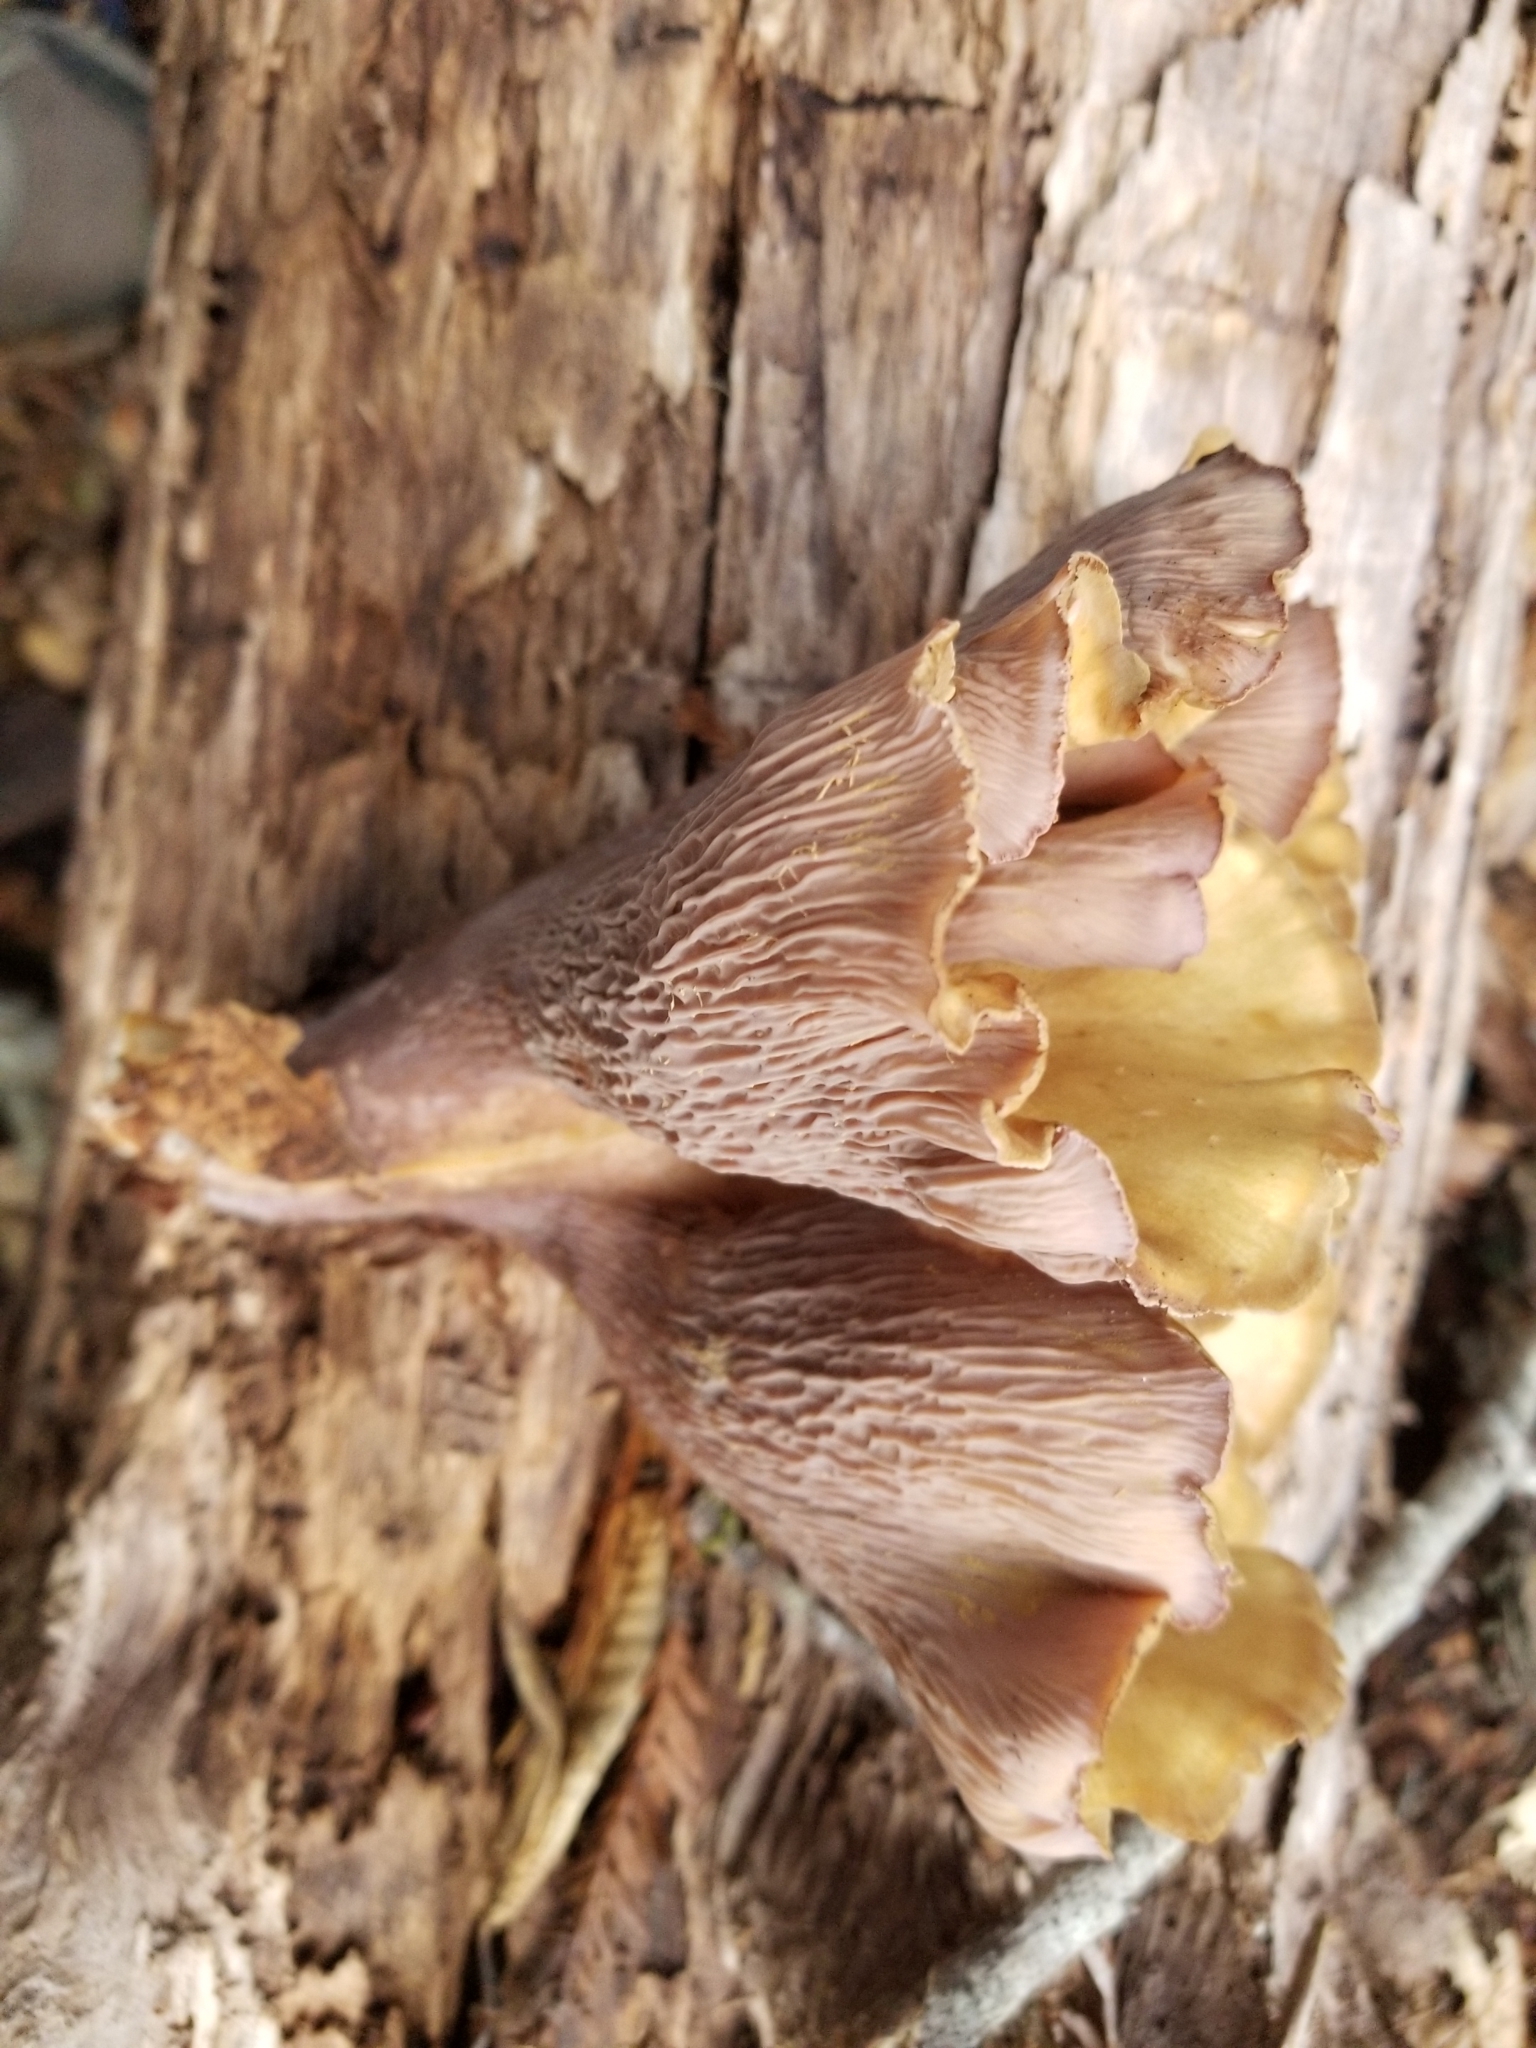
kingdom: Fungi
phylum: Basidiomycota
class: Agaricomycetes
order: Gomphales
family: Gomphaceae
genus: Gomphus
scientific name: Gomphus clavatus
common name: Pig's ear
